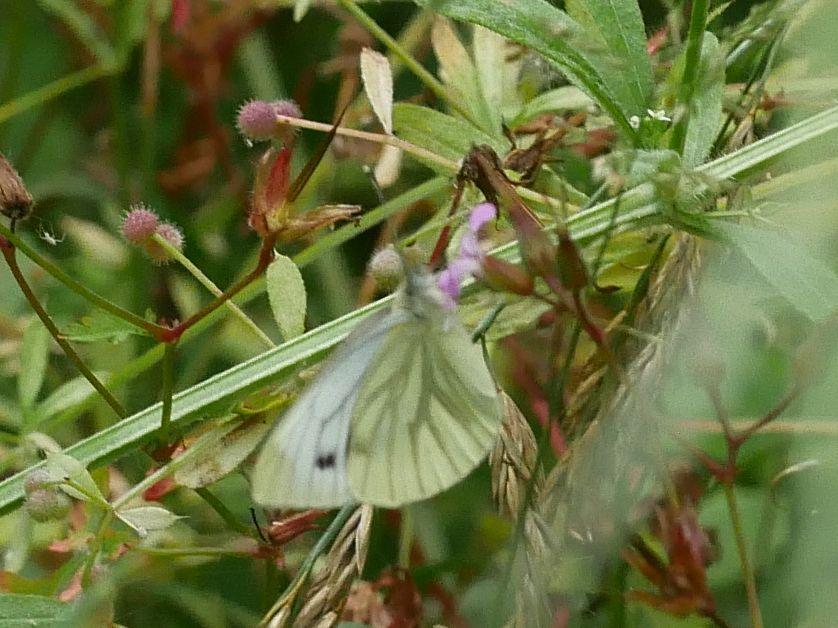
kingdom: Animalia
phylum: Arthropoda
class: Insecta
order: Lepidoptera
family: Pieridae
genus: Pieris
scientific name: Pieris napi
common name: Green-veined white
